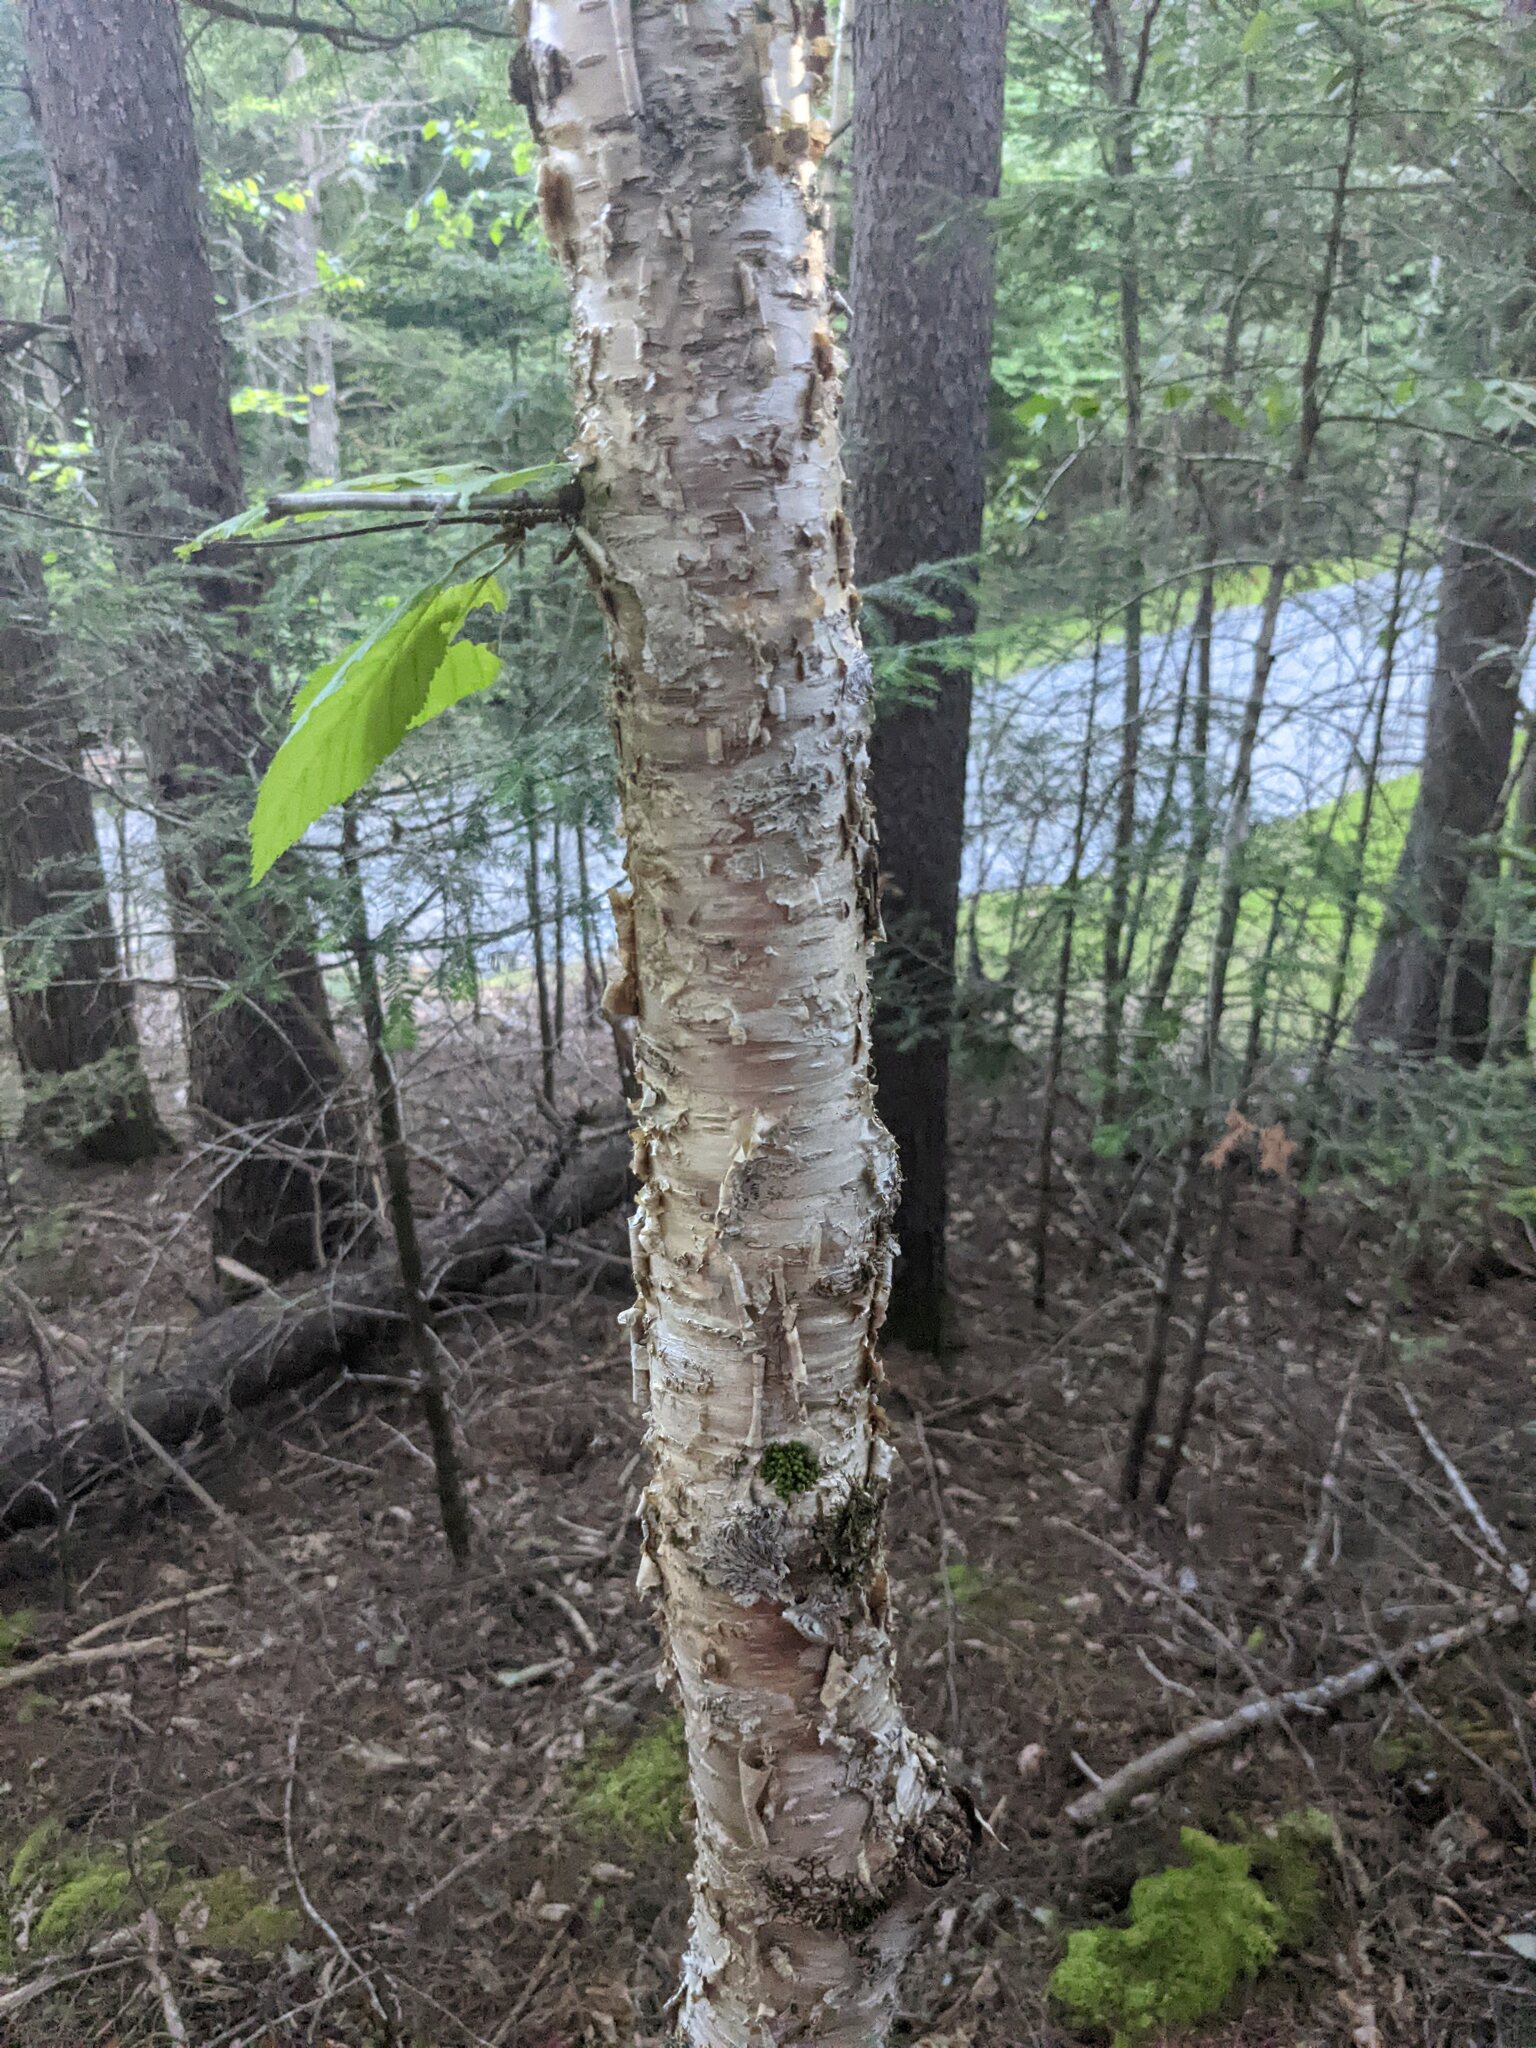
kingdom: Plantae
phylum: Tracheophyta
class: Magnoliopsida
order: Fagales
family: Betulaceae
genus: Betula
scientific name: Betula alleghaniensis
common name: Yellow birch
